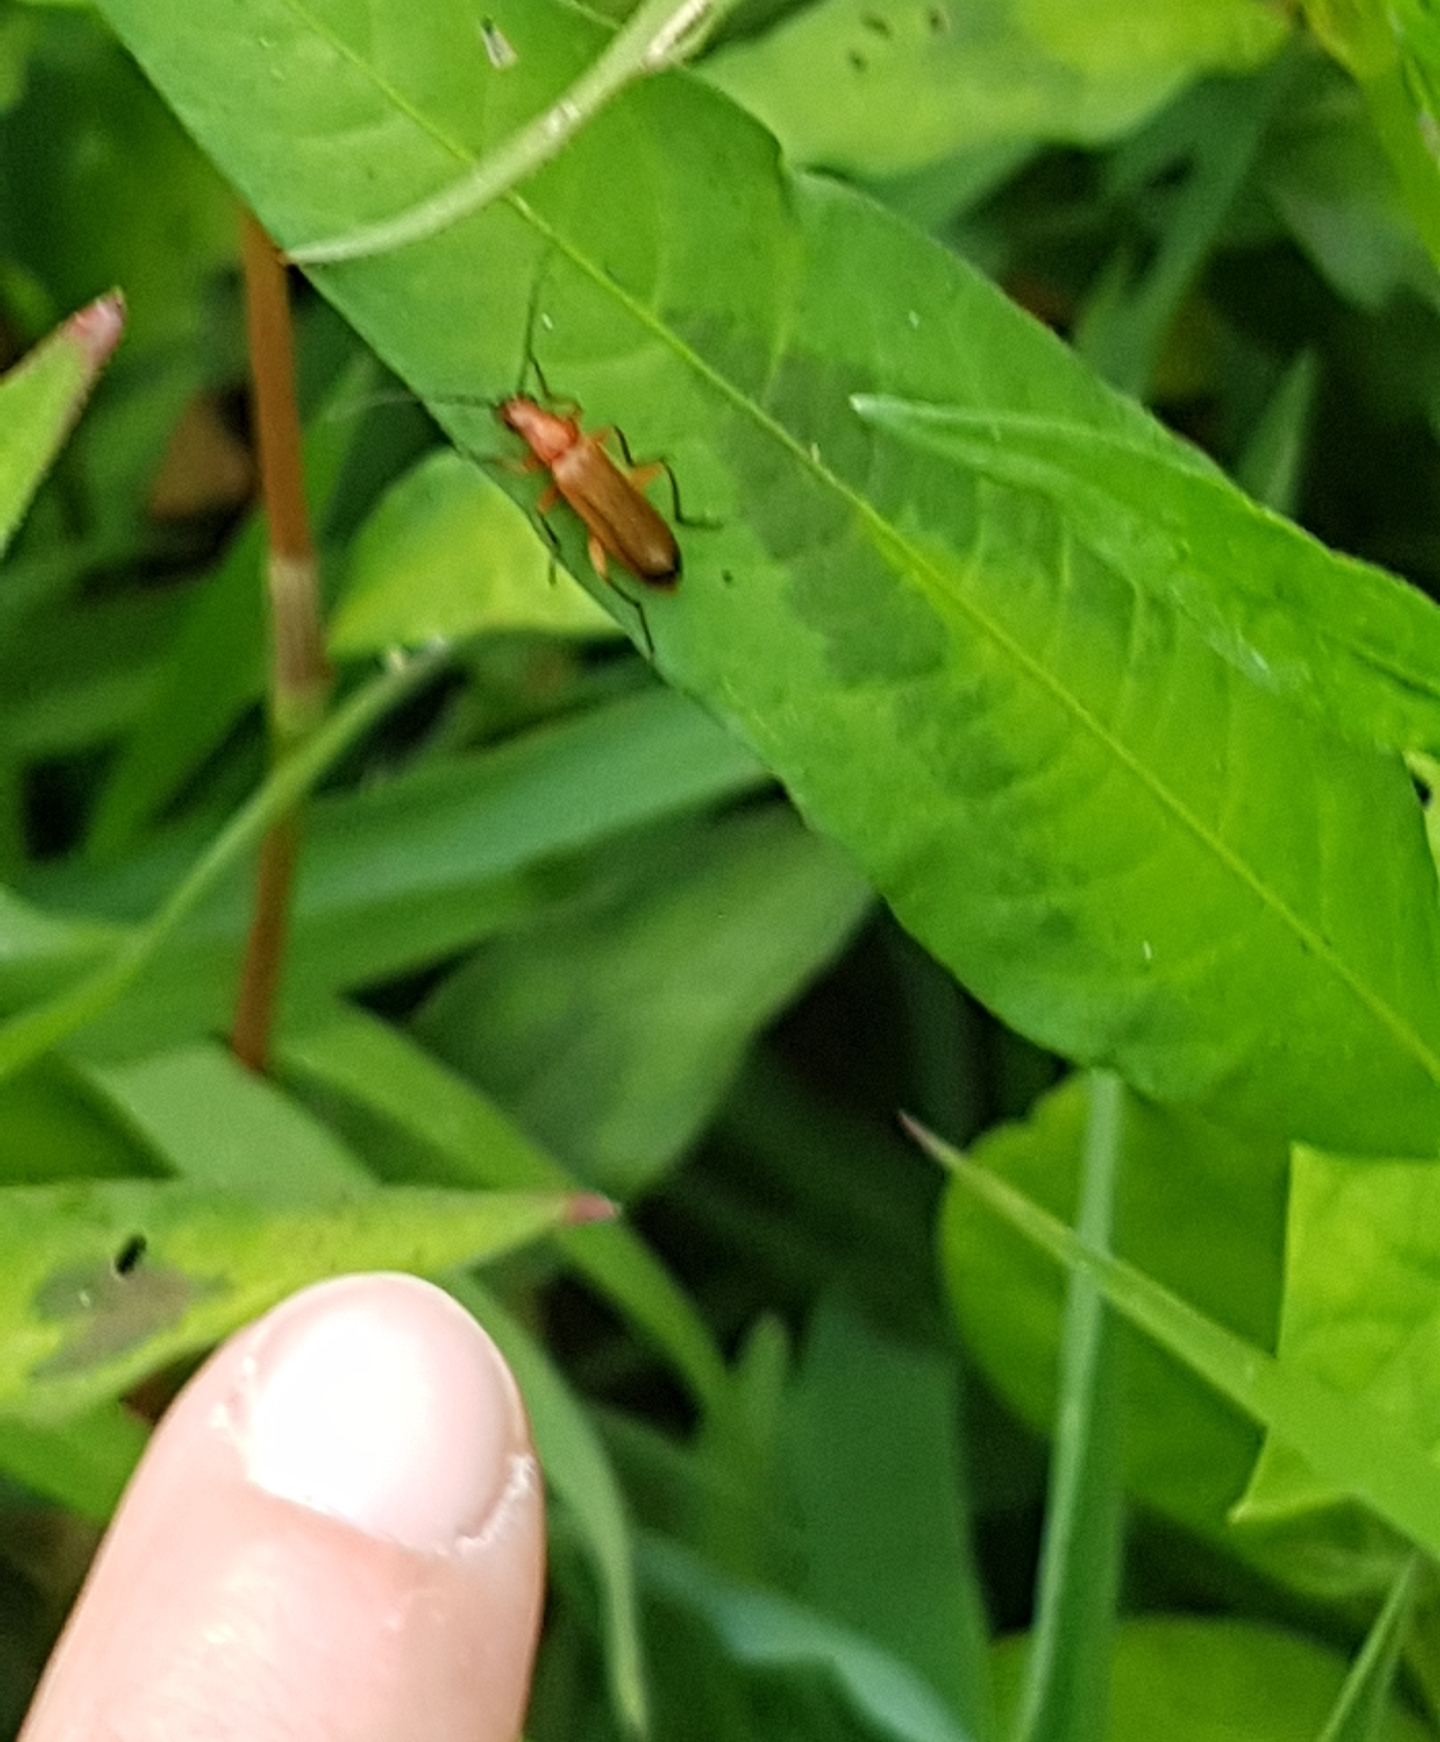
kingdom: Animalia
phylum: Arthropoda
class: Insecta
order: Coleoptera
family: Cantharidae
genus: Rhagonycha
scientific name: Rhagonycha fulva
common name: Common red soldier beetle
